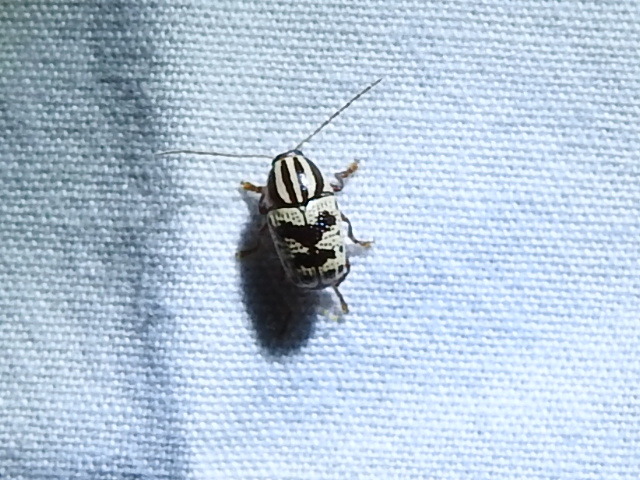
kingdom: Animalia
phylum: Arthropoda
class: Insecta
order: Coleoptera
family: Chrysomelidae
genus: Cryptocephalus
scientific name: Cryptocephalus leucomelas
